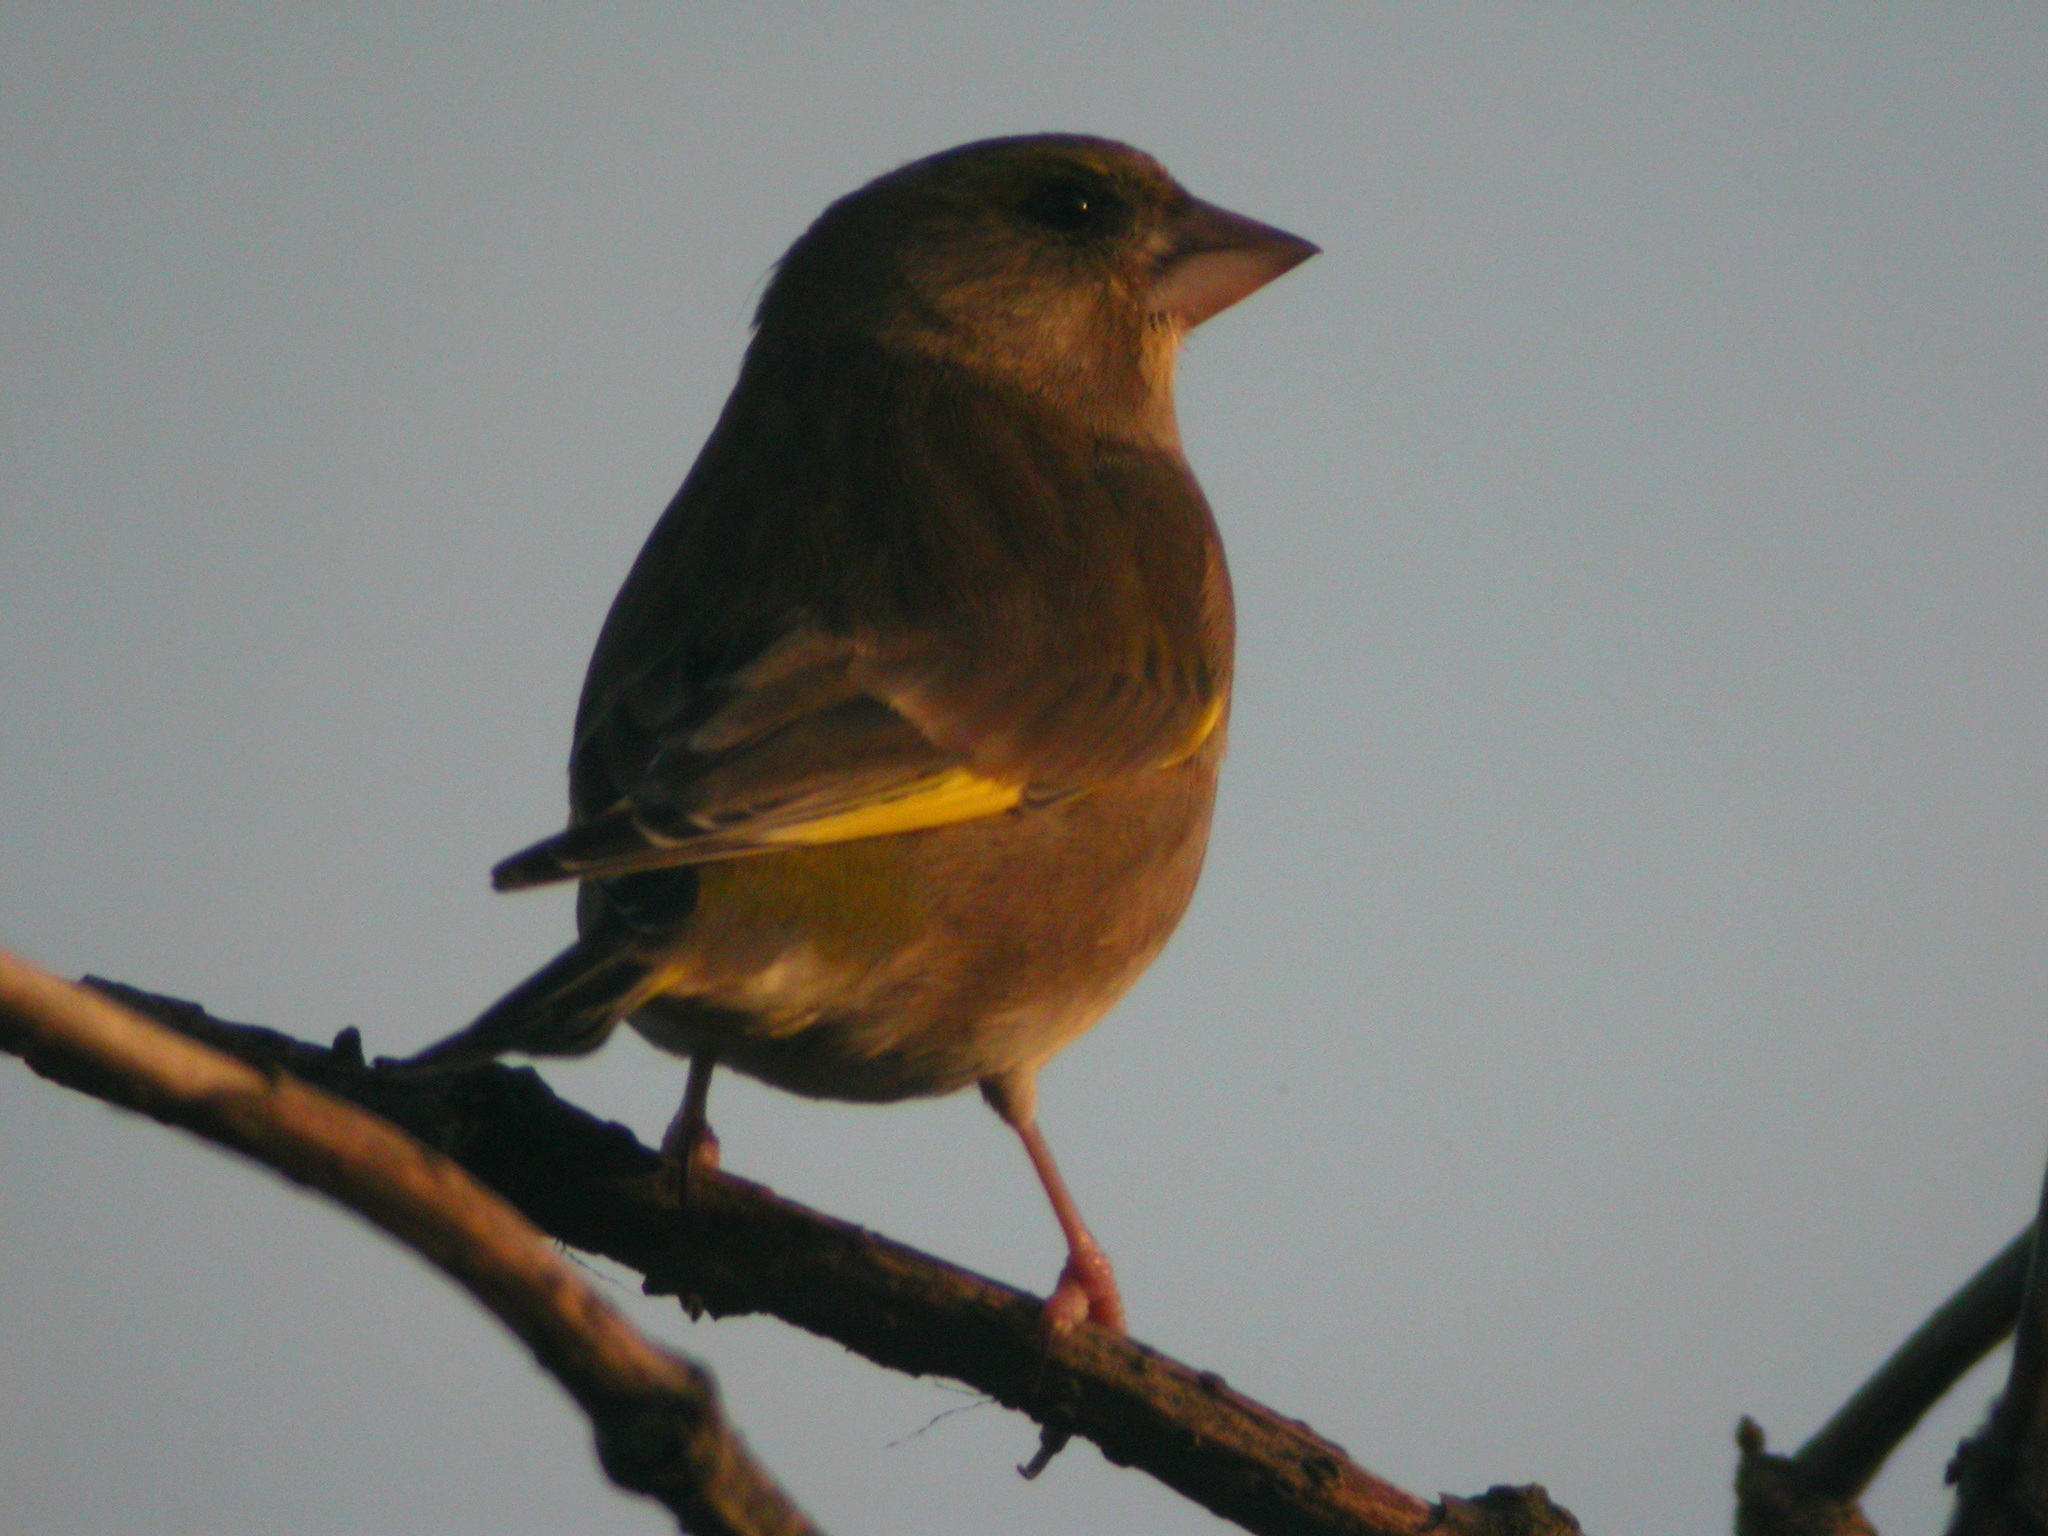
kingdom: Plantae
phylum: Tracheophyta
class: Liliopsida
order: Poales
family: Poaceae
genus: Chloris
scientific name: Chloris chloris
